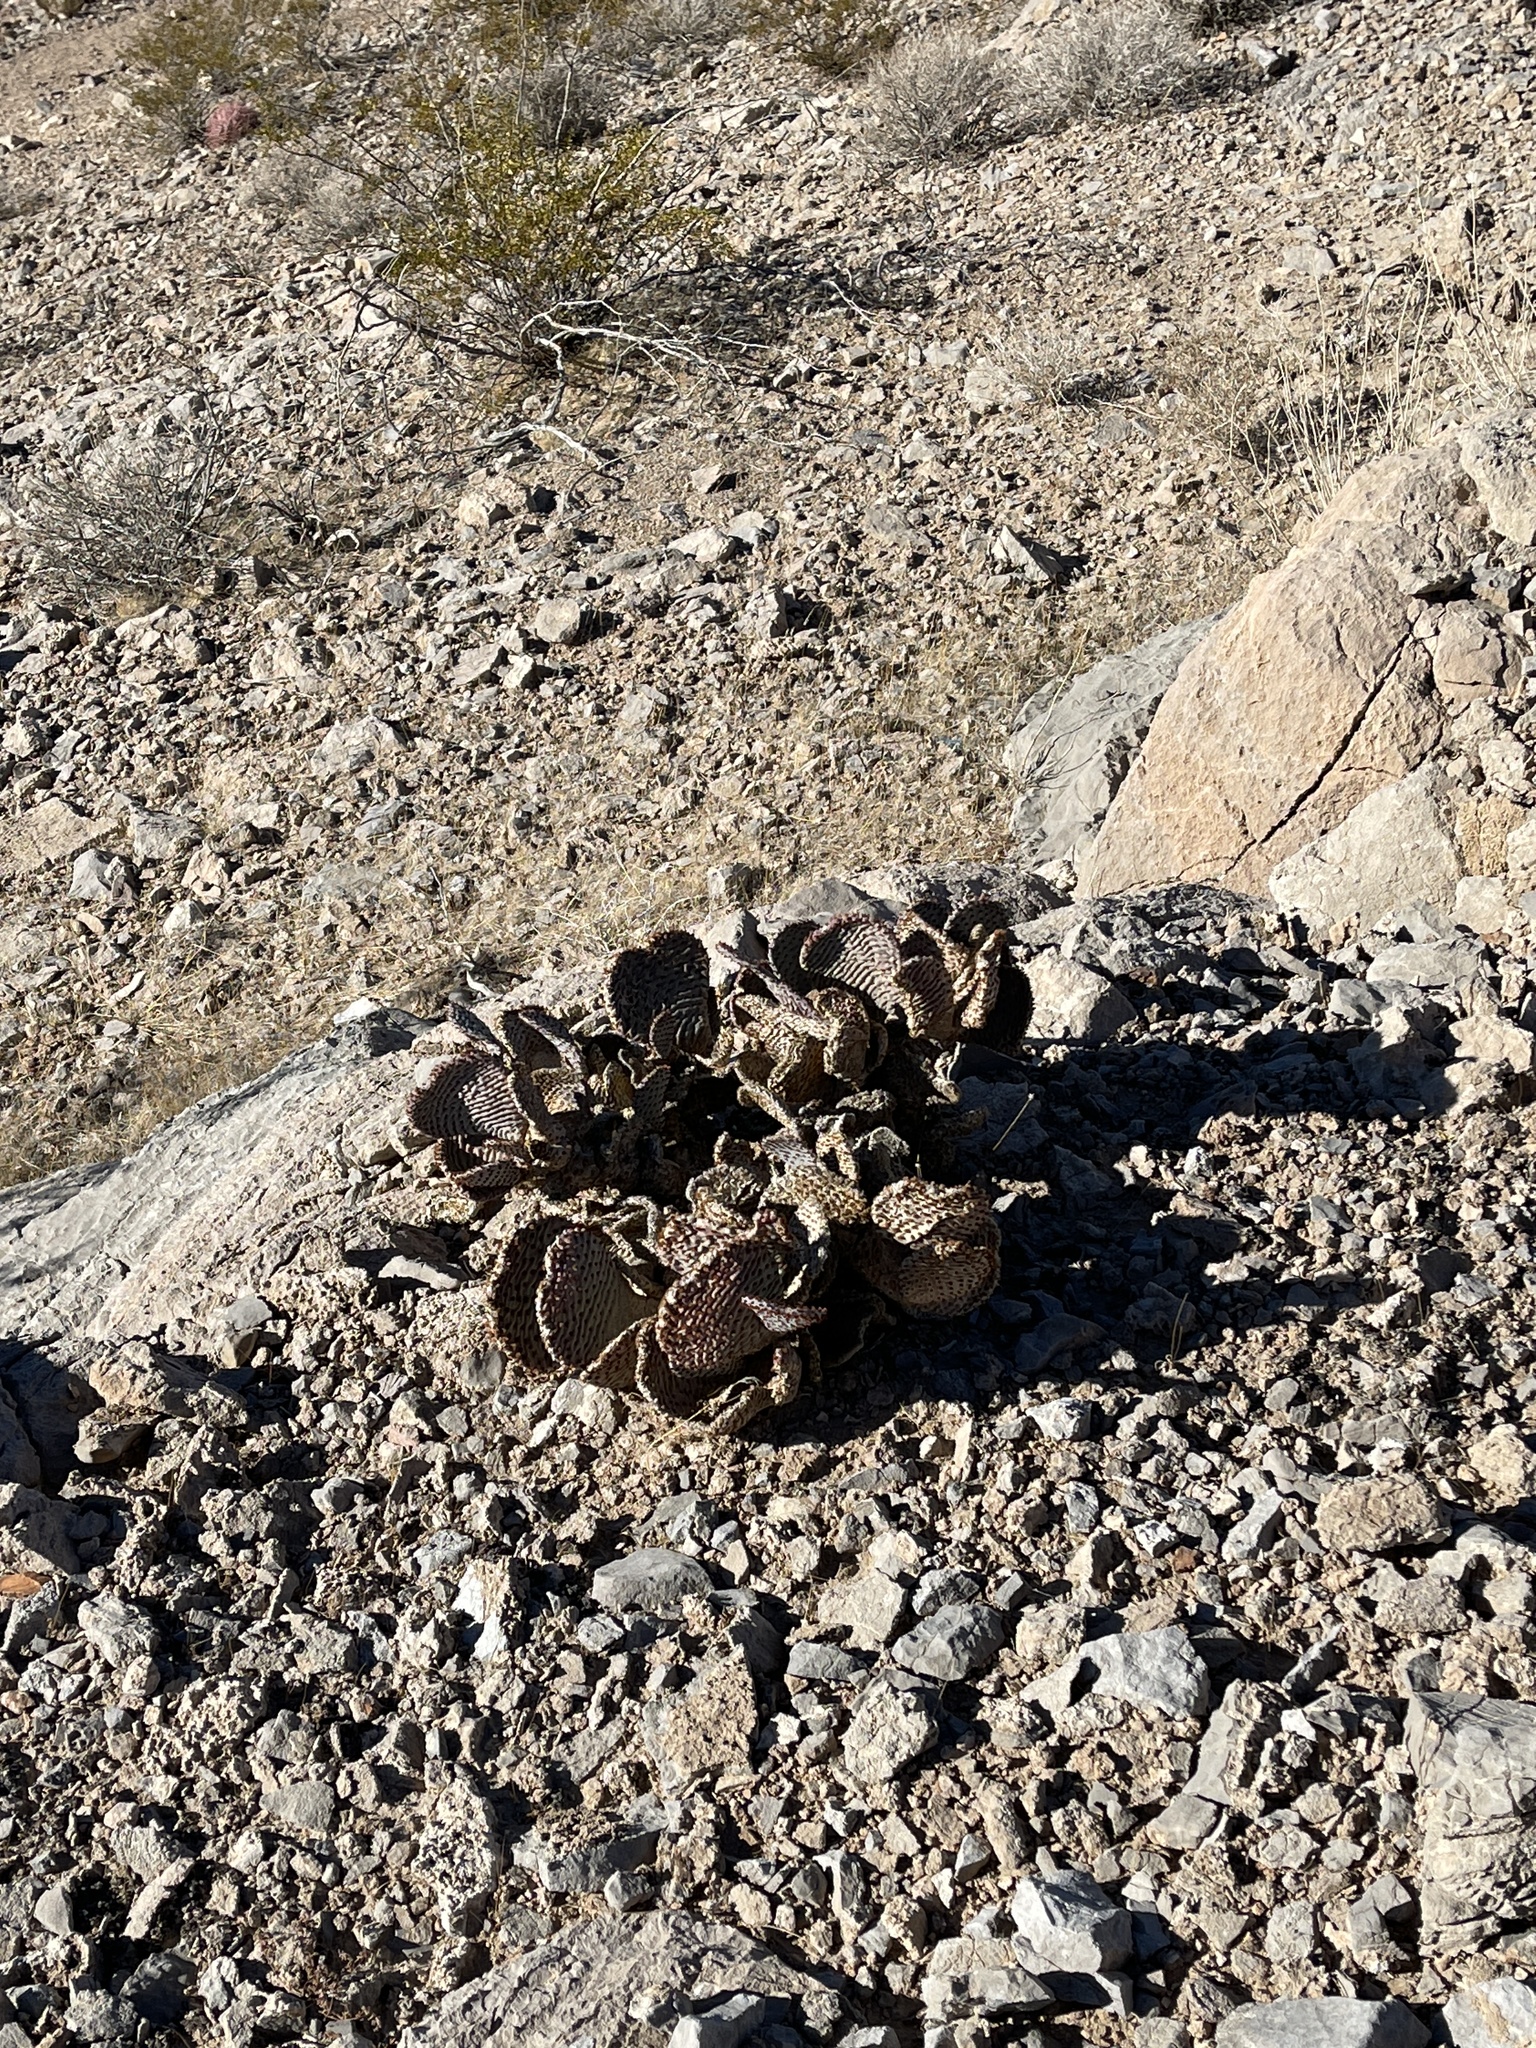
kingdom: Plantae
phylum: Tracheophyta
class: Magnoliopsida
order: Caryophyllales
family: Cactaceae
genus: Opuntia
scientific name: Opuntia basilaris
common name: Beavertail prickly-pear
